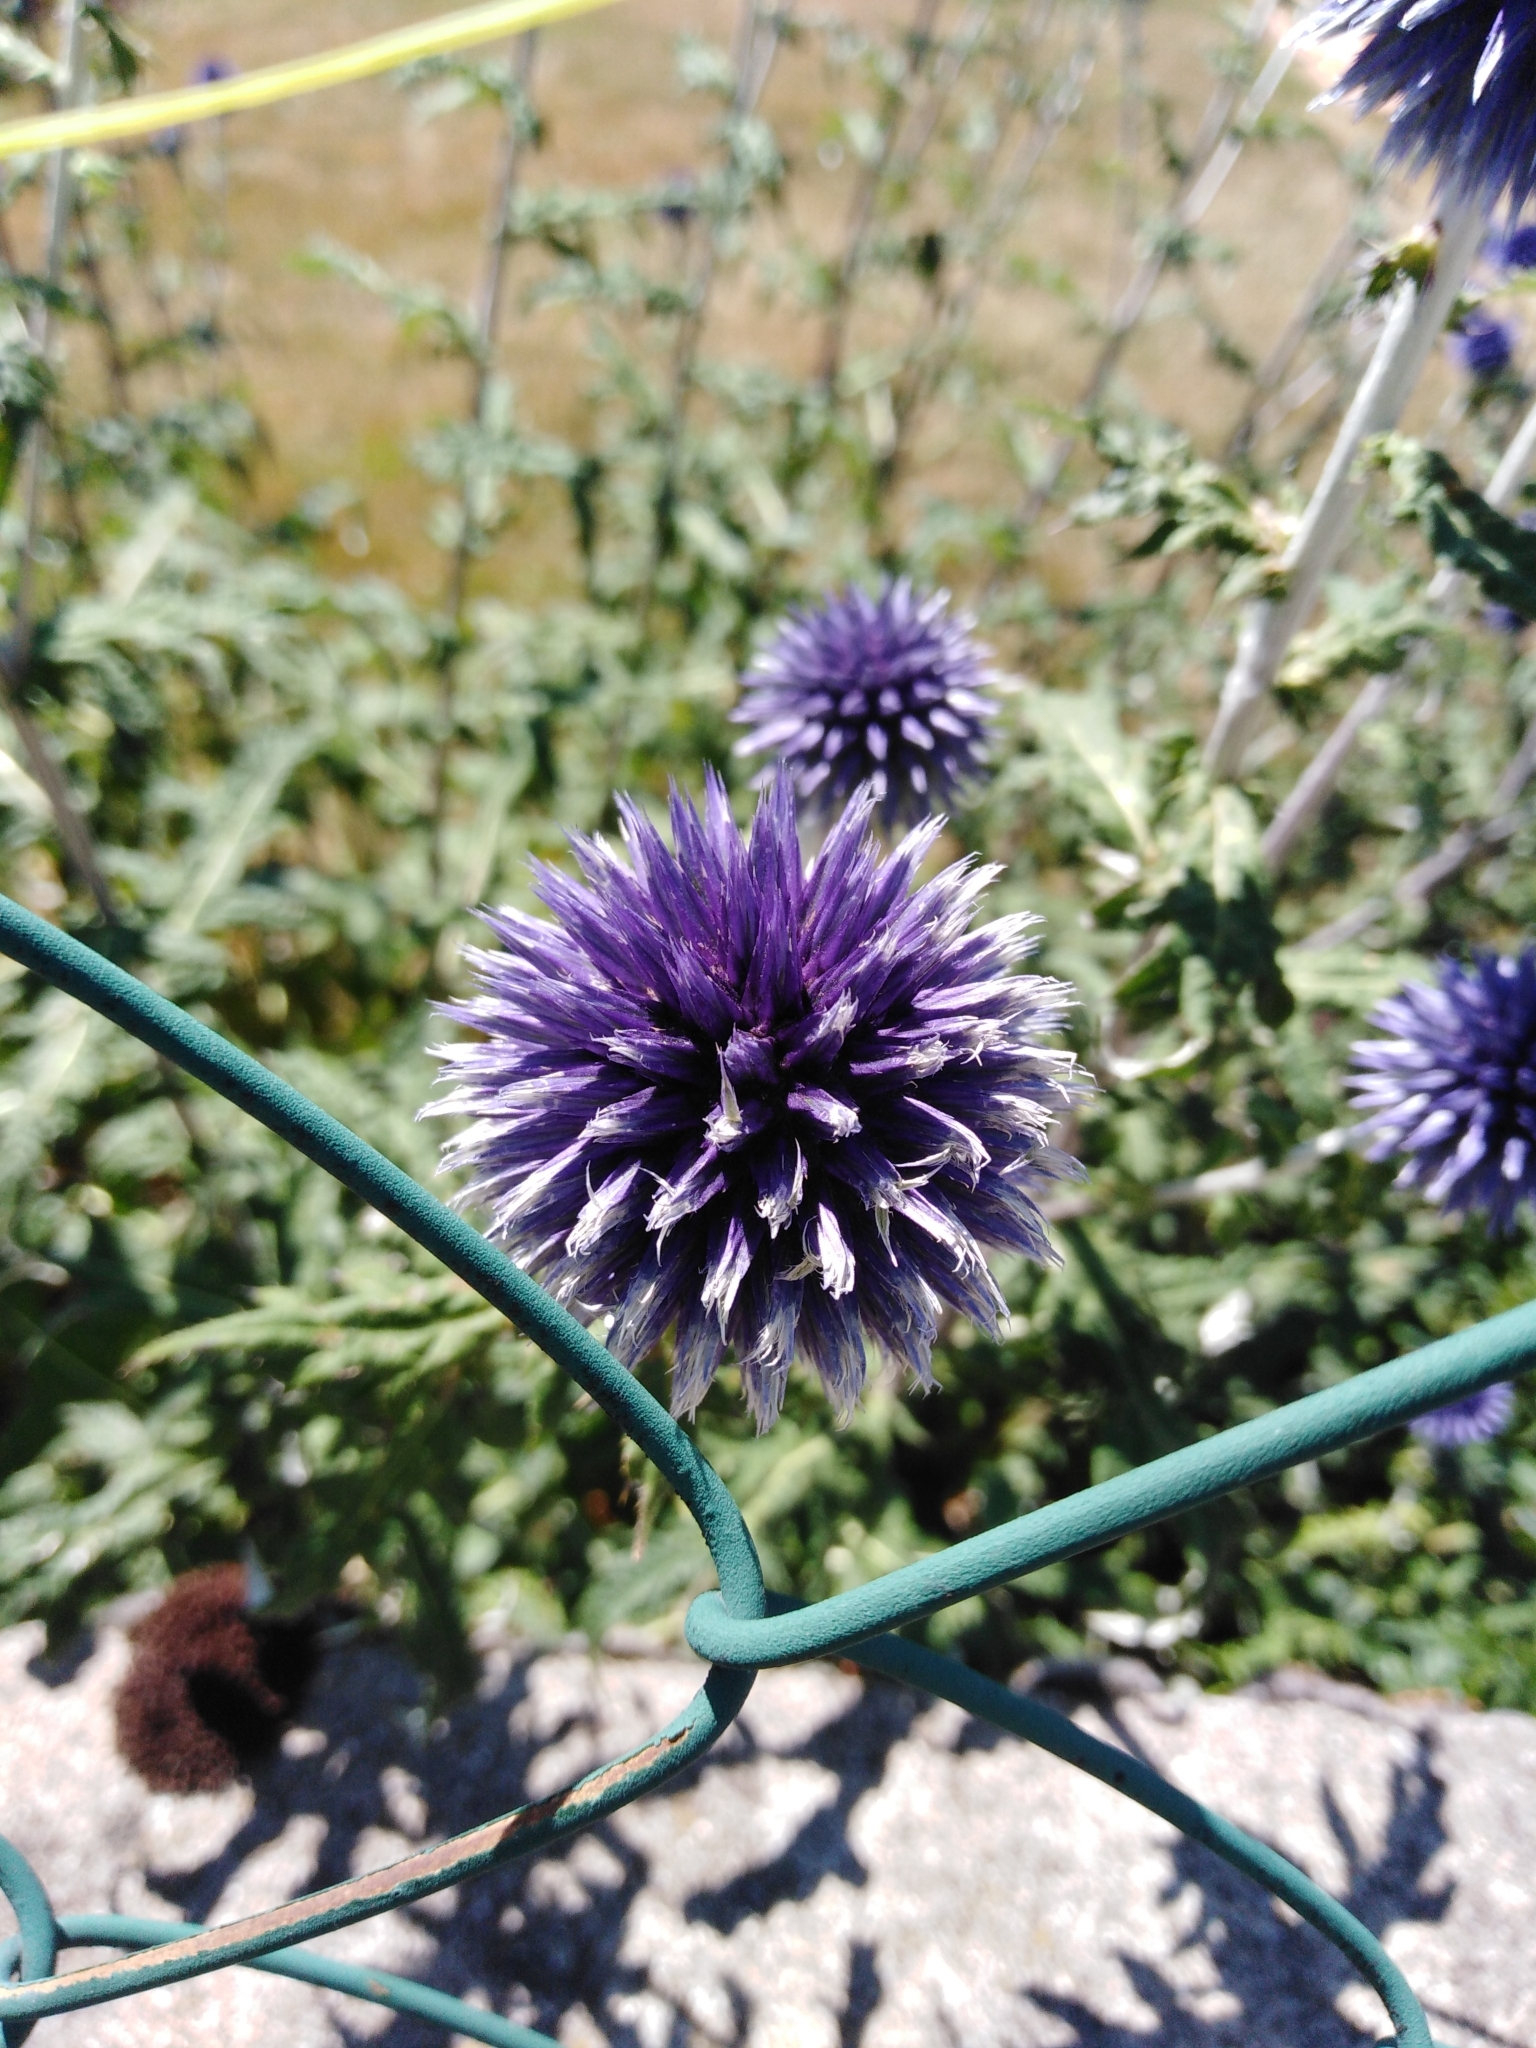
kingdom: Plantae
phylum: Tracheophyta
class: Magnoliopsida
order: Asterales
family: Asteraceae
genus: Echinops
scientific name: Echinops ritro
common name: Globe thistle
